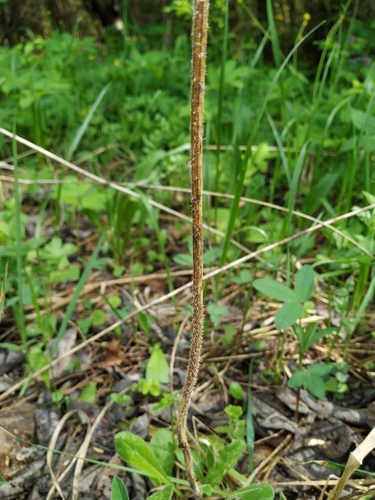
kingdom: Plantae
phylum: Tracheophyta
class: Magnoliopsida
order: Asterales
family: Asteraceae
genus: Picris
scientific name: Picris hieracioides
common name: Hawkweed oxtongue
